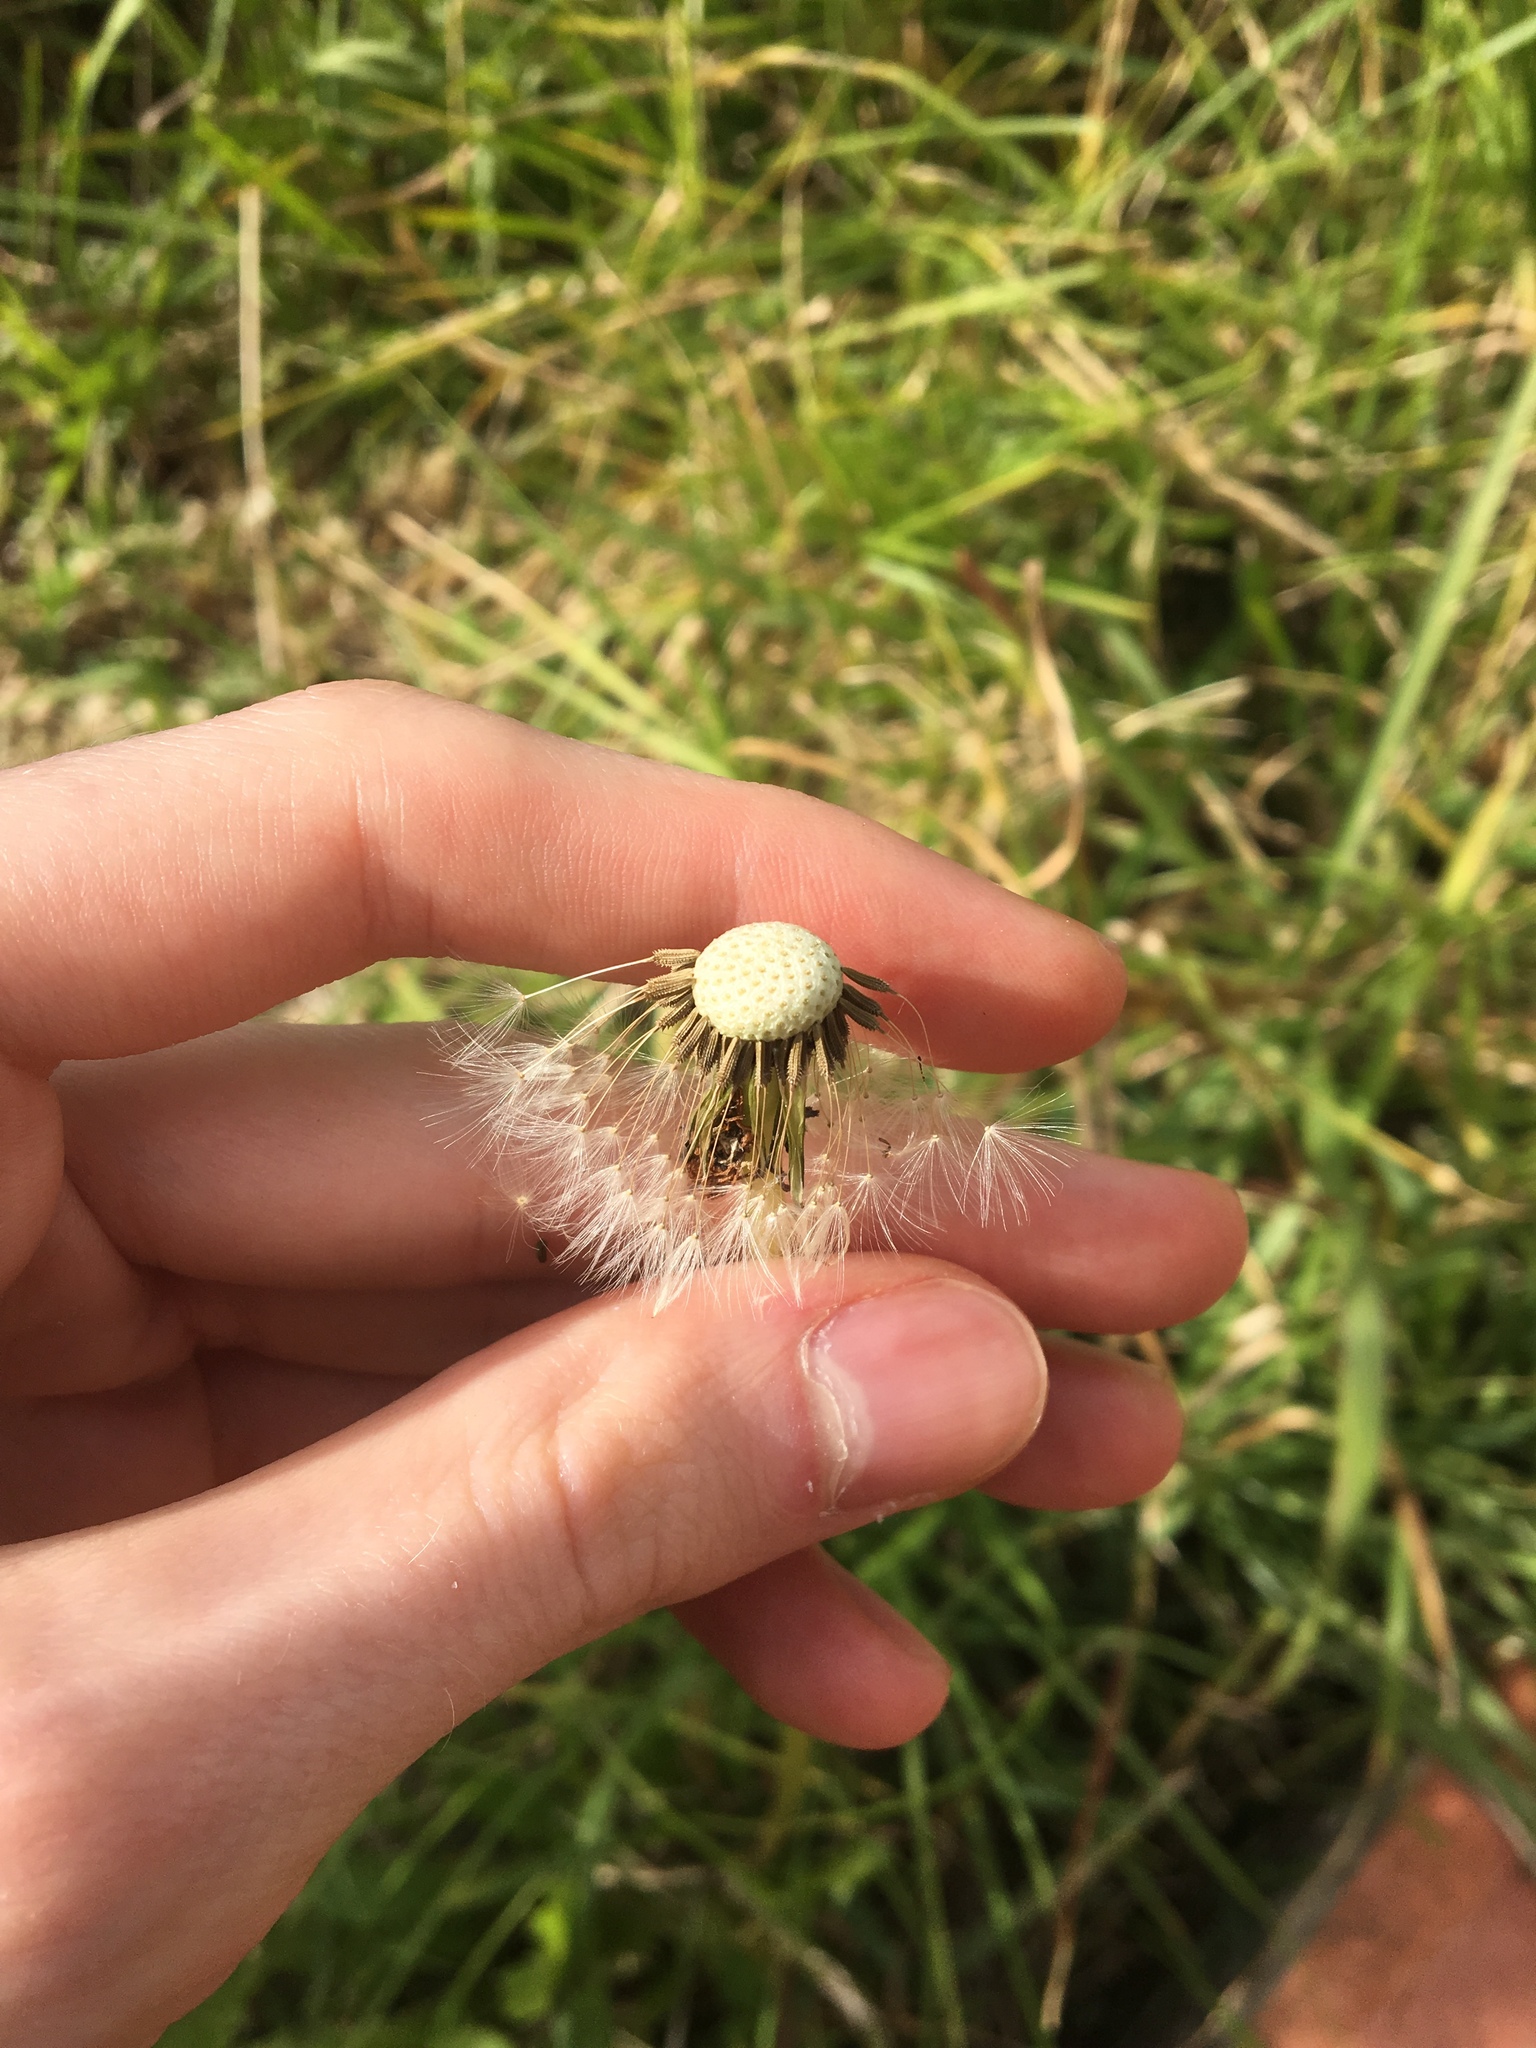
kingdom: Plantae
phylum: Tracheophyta
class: Magnoliopsida
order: Asterales
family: Asteraceae
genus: Taraxacum
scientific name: Taraxacum officinale
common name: Common dandelion
